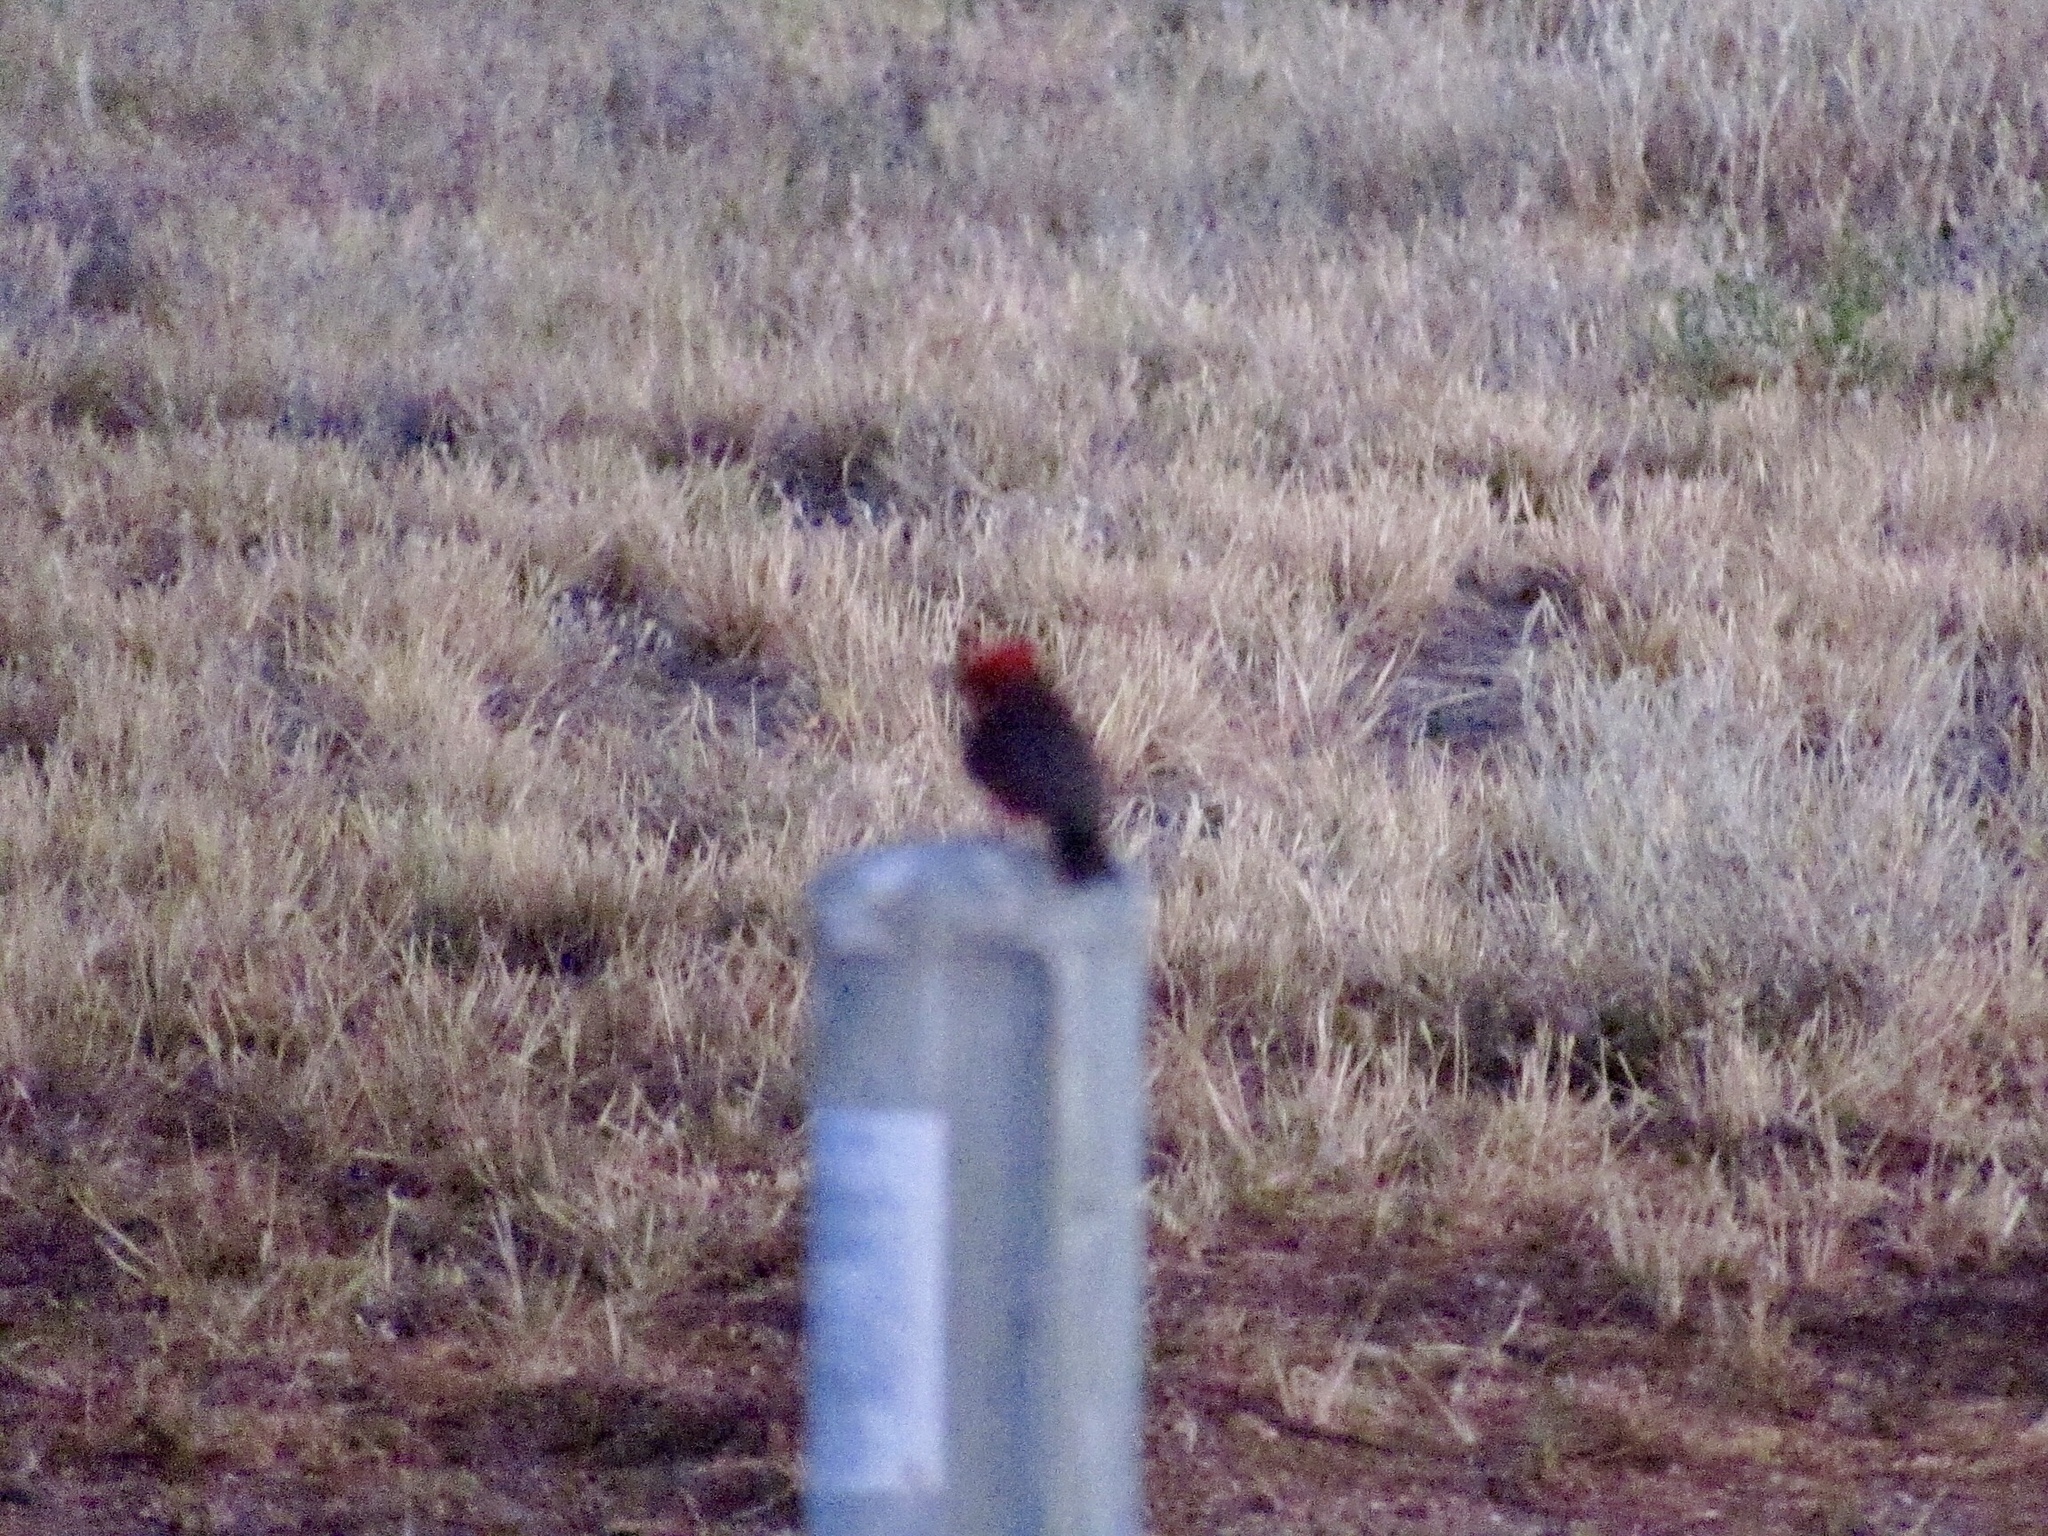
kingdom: Animalia
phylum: Chordata
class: Aves
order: Passeriformes
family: Tyrannidae
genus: Pyrocephalus
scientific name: Pyrocephalus rubinus
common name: Vermilion flycatcher
